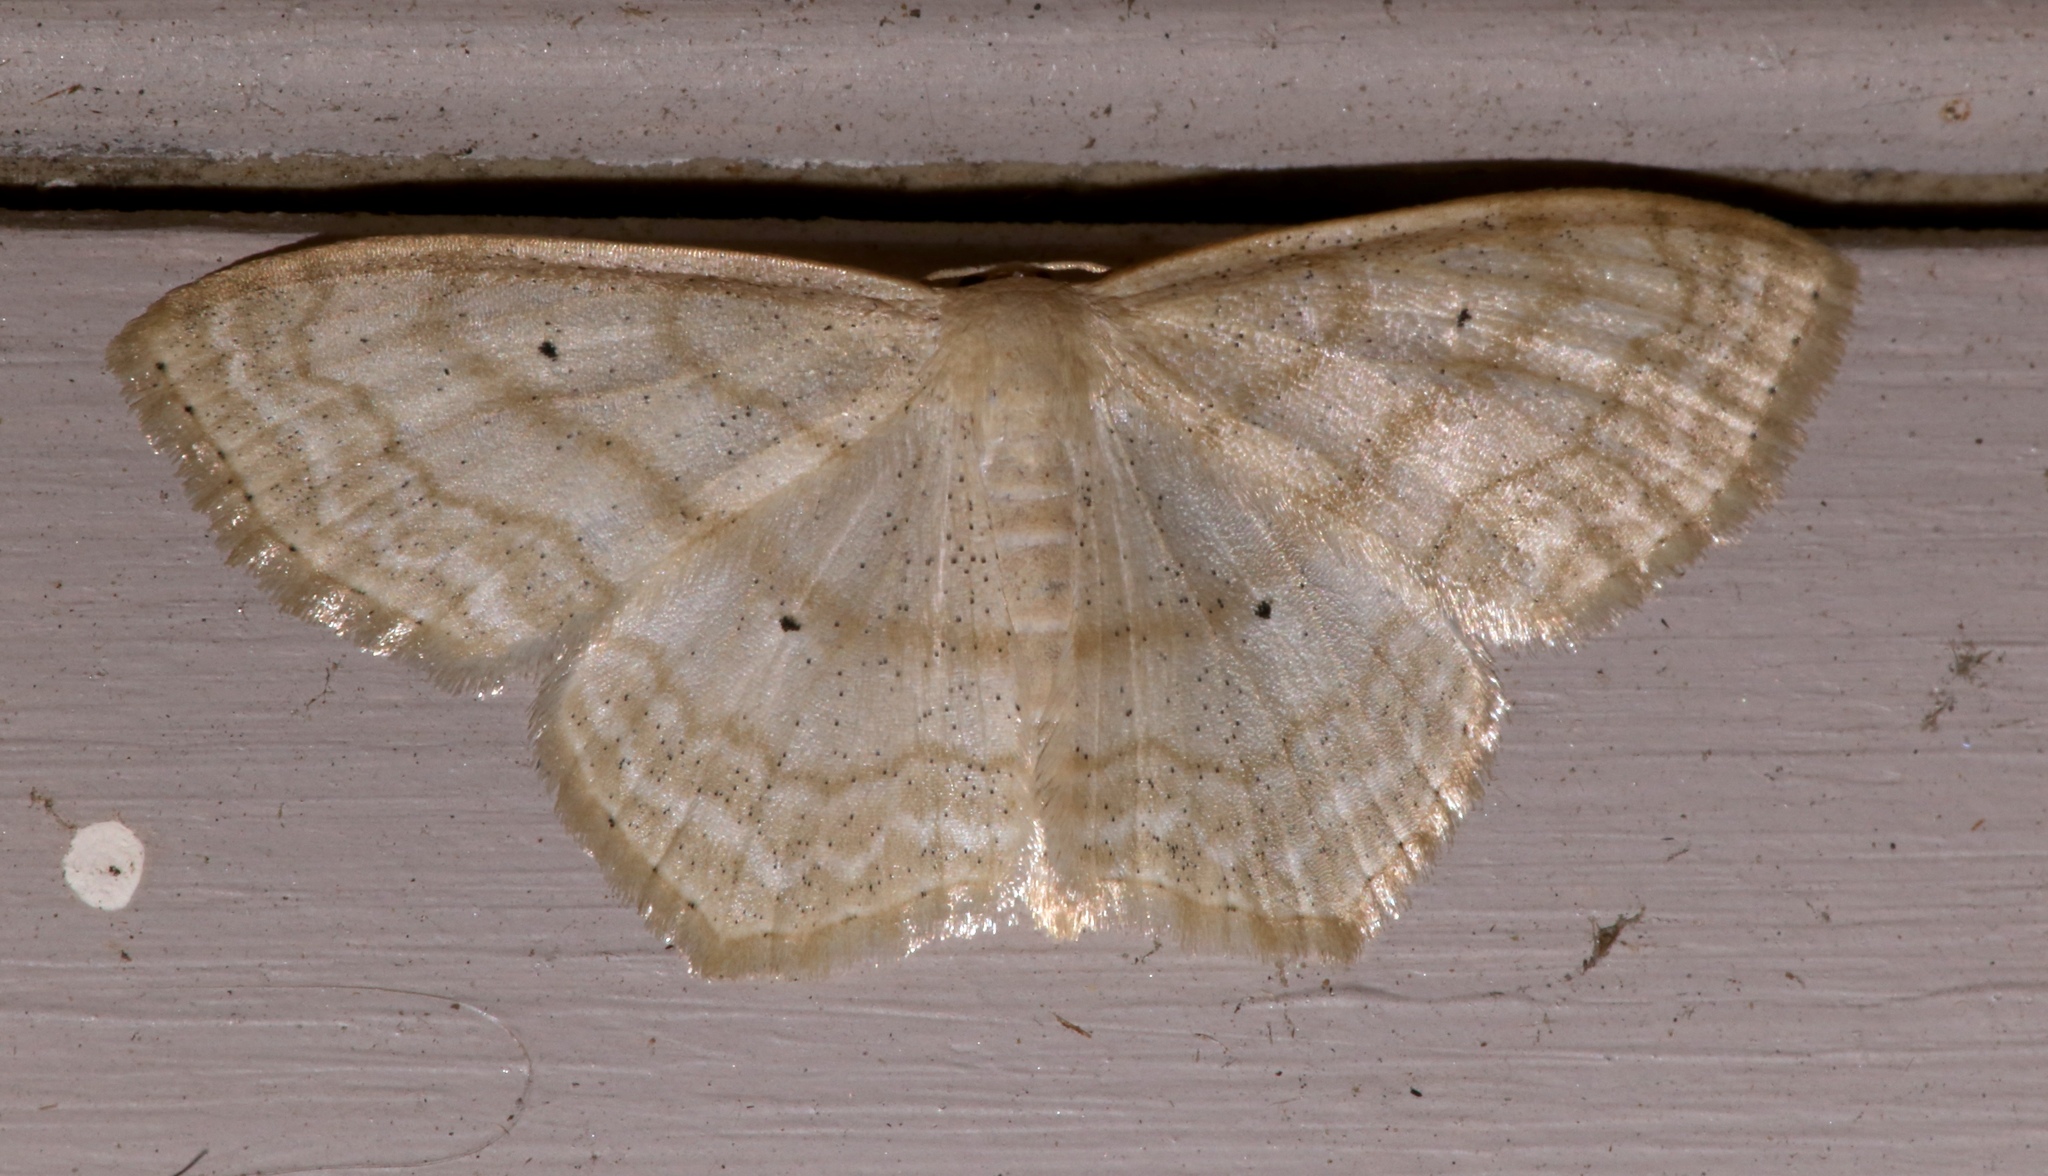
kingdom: Animalia
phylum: Arthropoda
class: Insecta
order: Lepidoptera
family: Geometridae
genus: Scopula
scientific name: Scopula limboundata
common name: Large lace border
